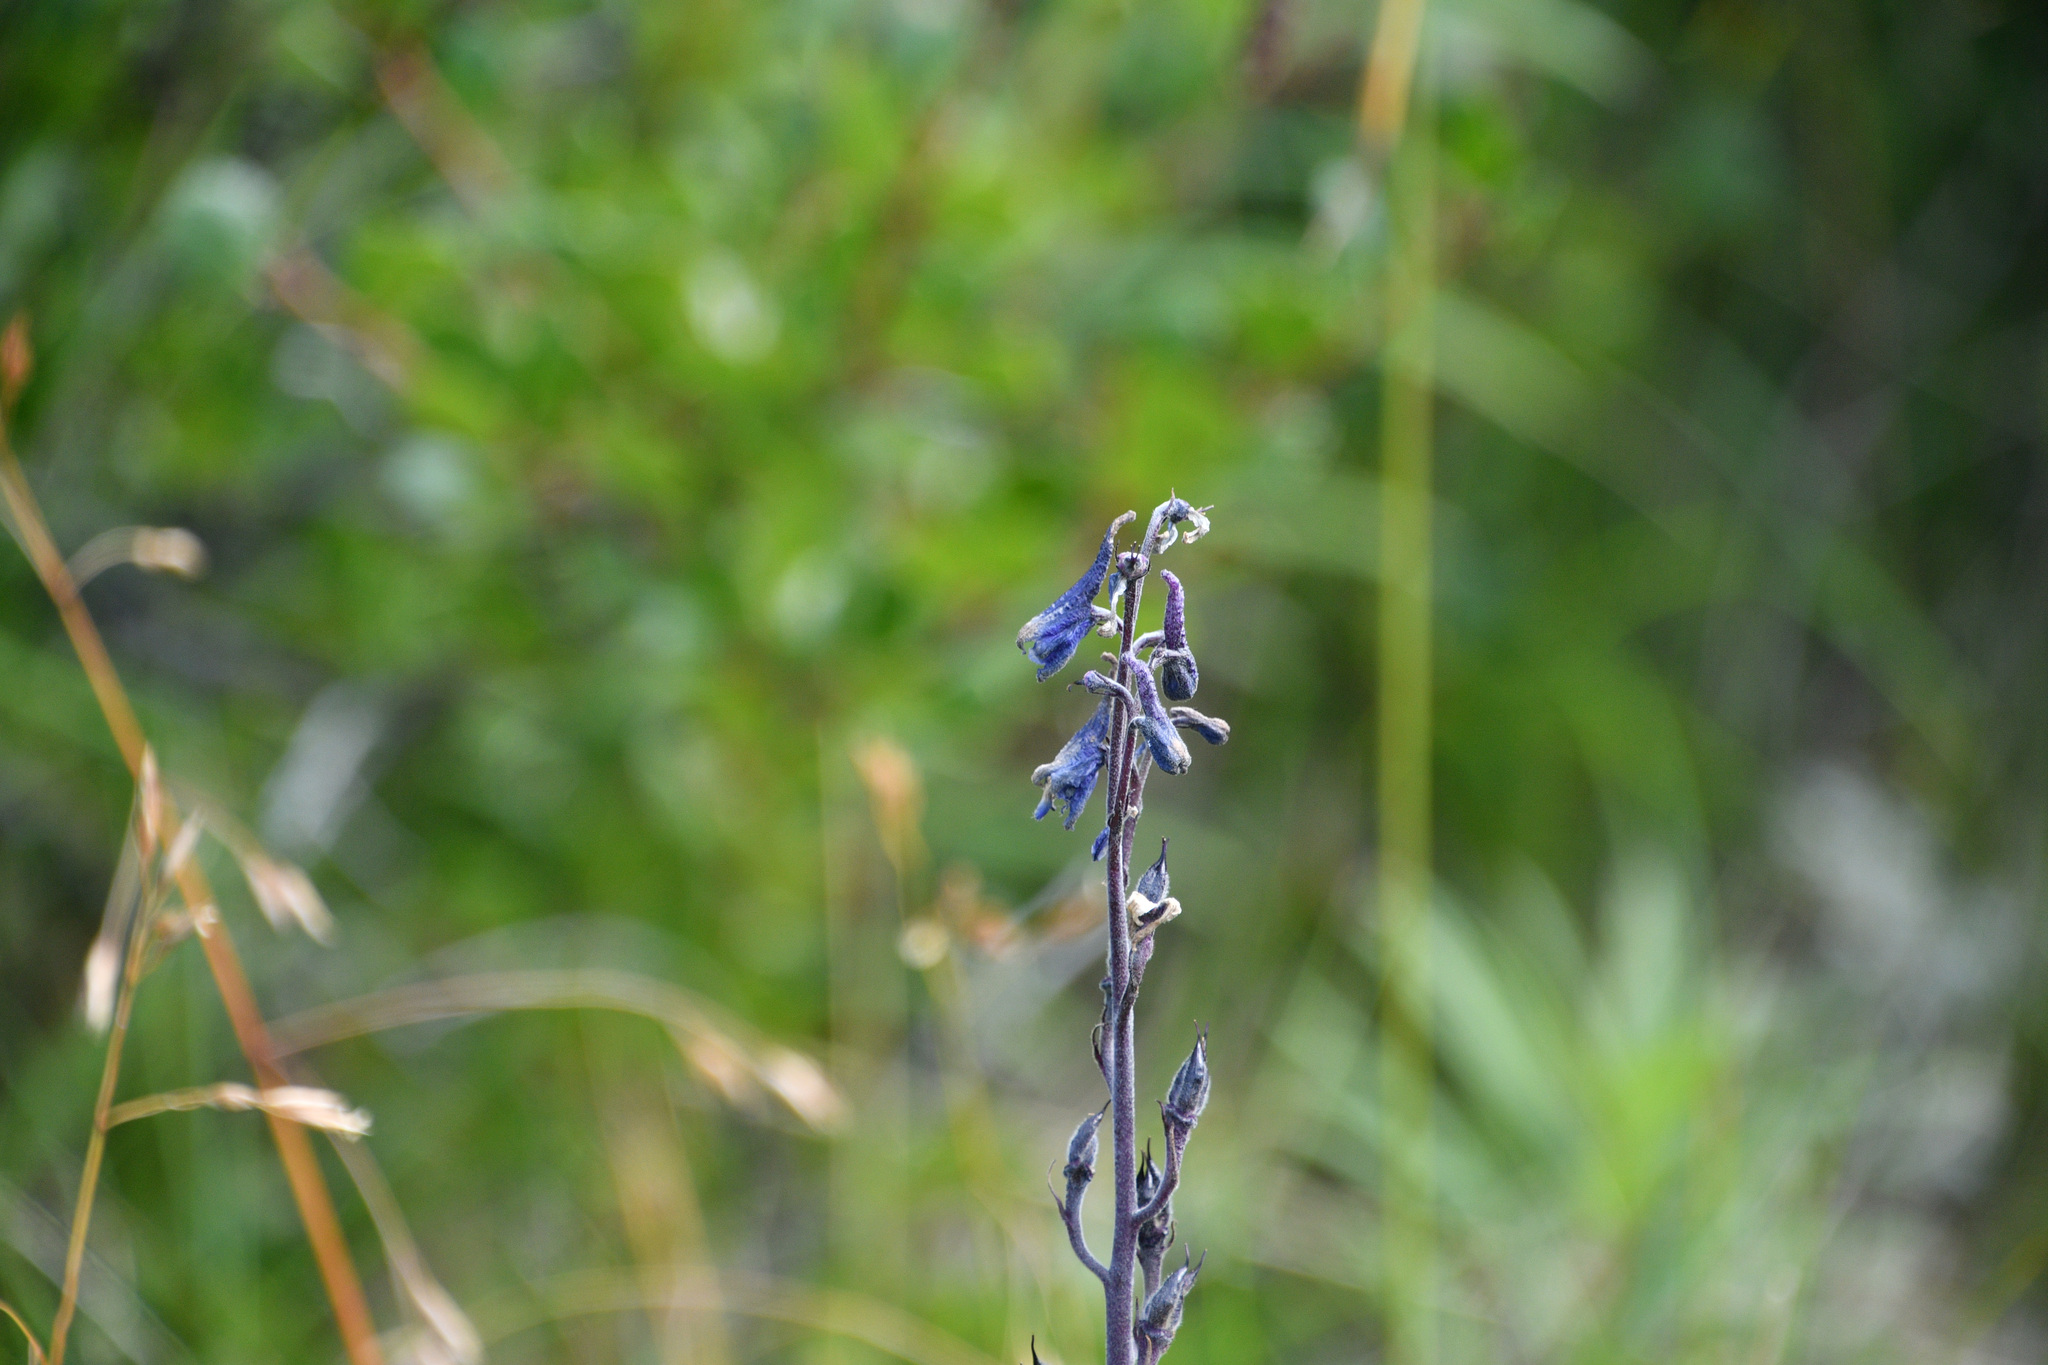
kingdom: Plantae
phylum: Tracheophyta
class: Magnoliopsida
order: Ranunculales
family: Ranunculaceae
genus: Delphinium
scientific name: Delphinium glaucum
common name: Brown's larkspur
